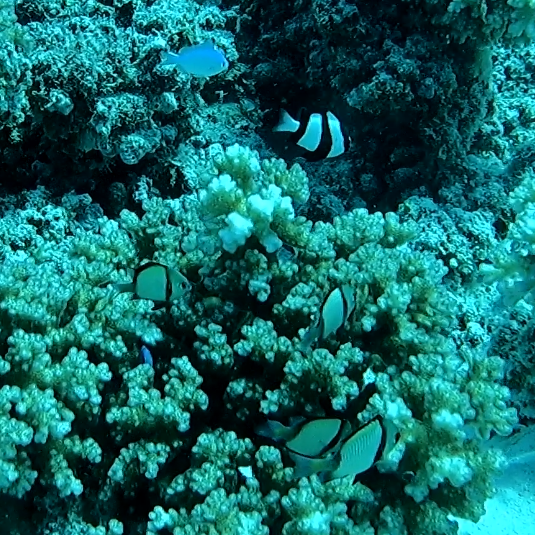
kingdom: Animalia
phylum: Chordata
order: Perciformes
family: Pomacentridae
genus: Dascyllus
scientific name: Dascyllus reticulatus
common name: Reticulated dascyllus
